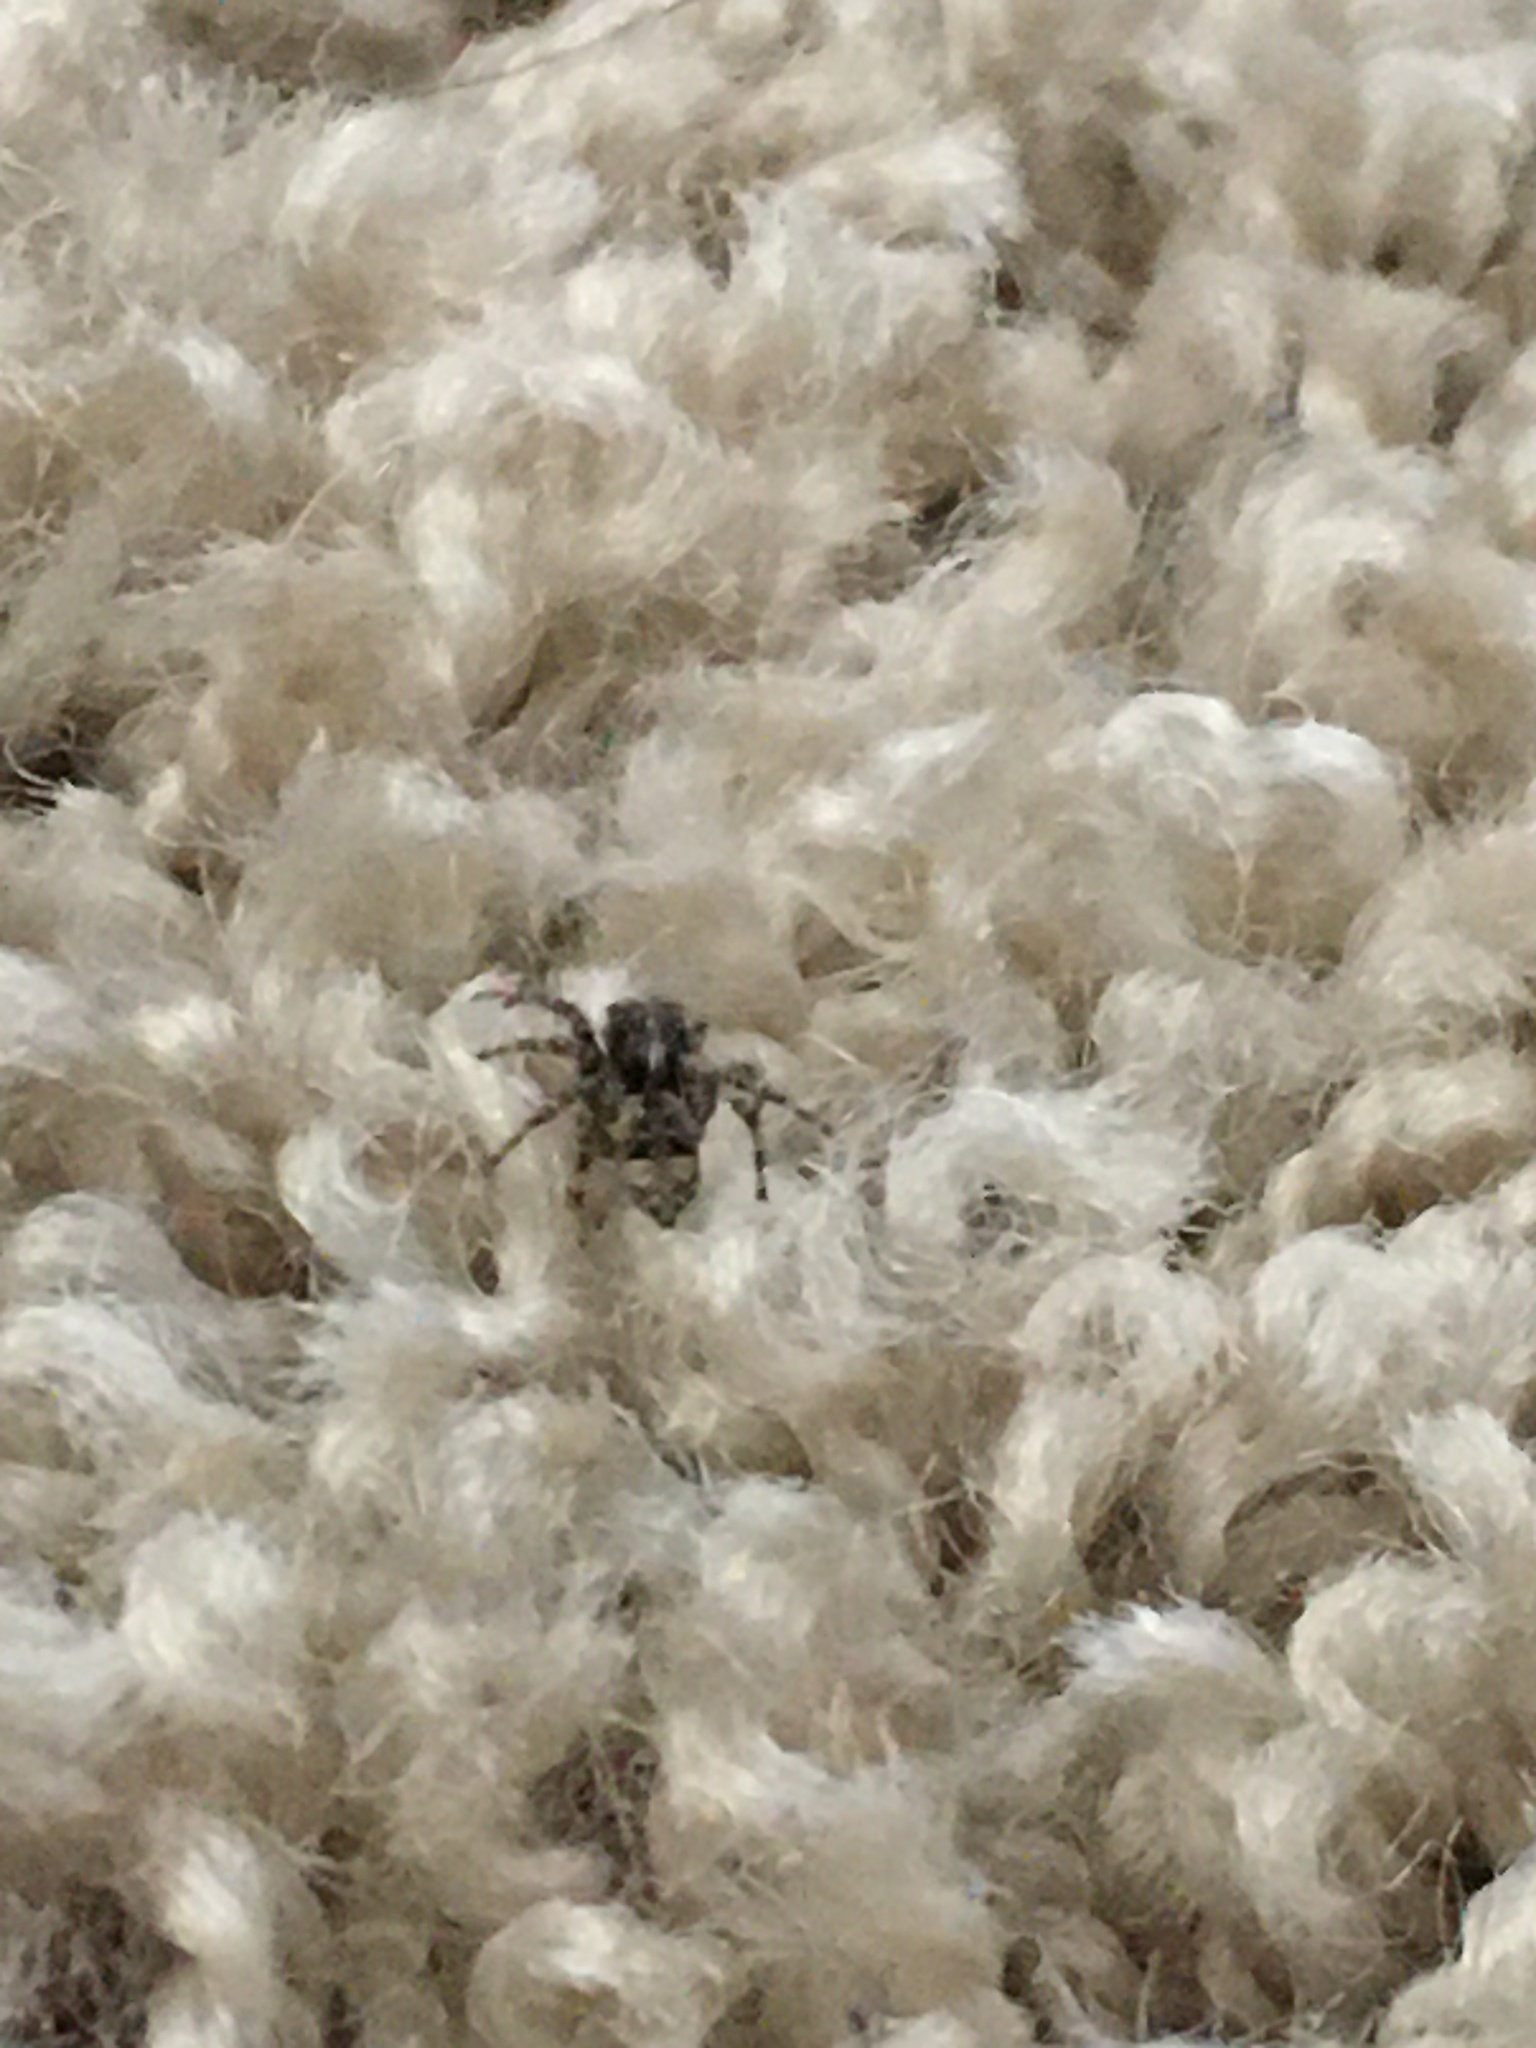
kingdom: Animalia
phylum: Arthropoda
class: Arachnida
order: Araneae
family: Salticidae
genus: Attulus
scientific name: Attulus fasciger
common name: Asiatic wall jumping spider
